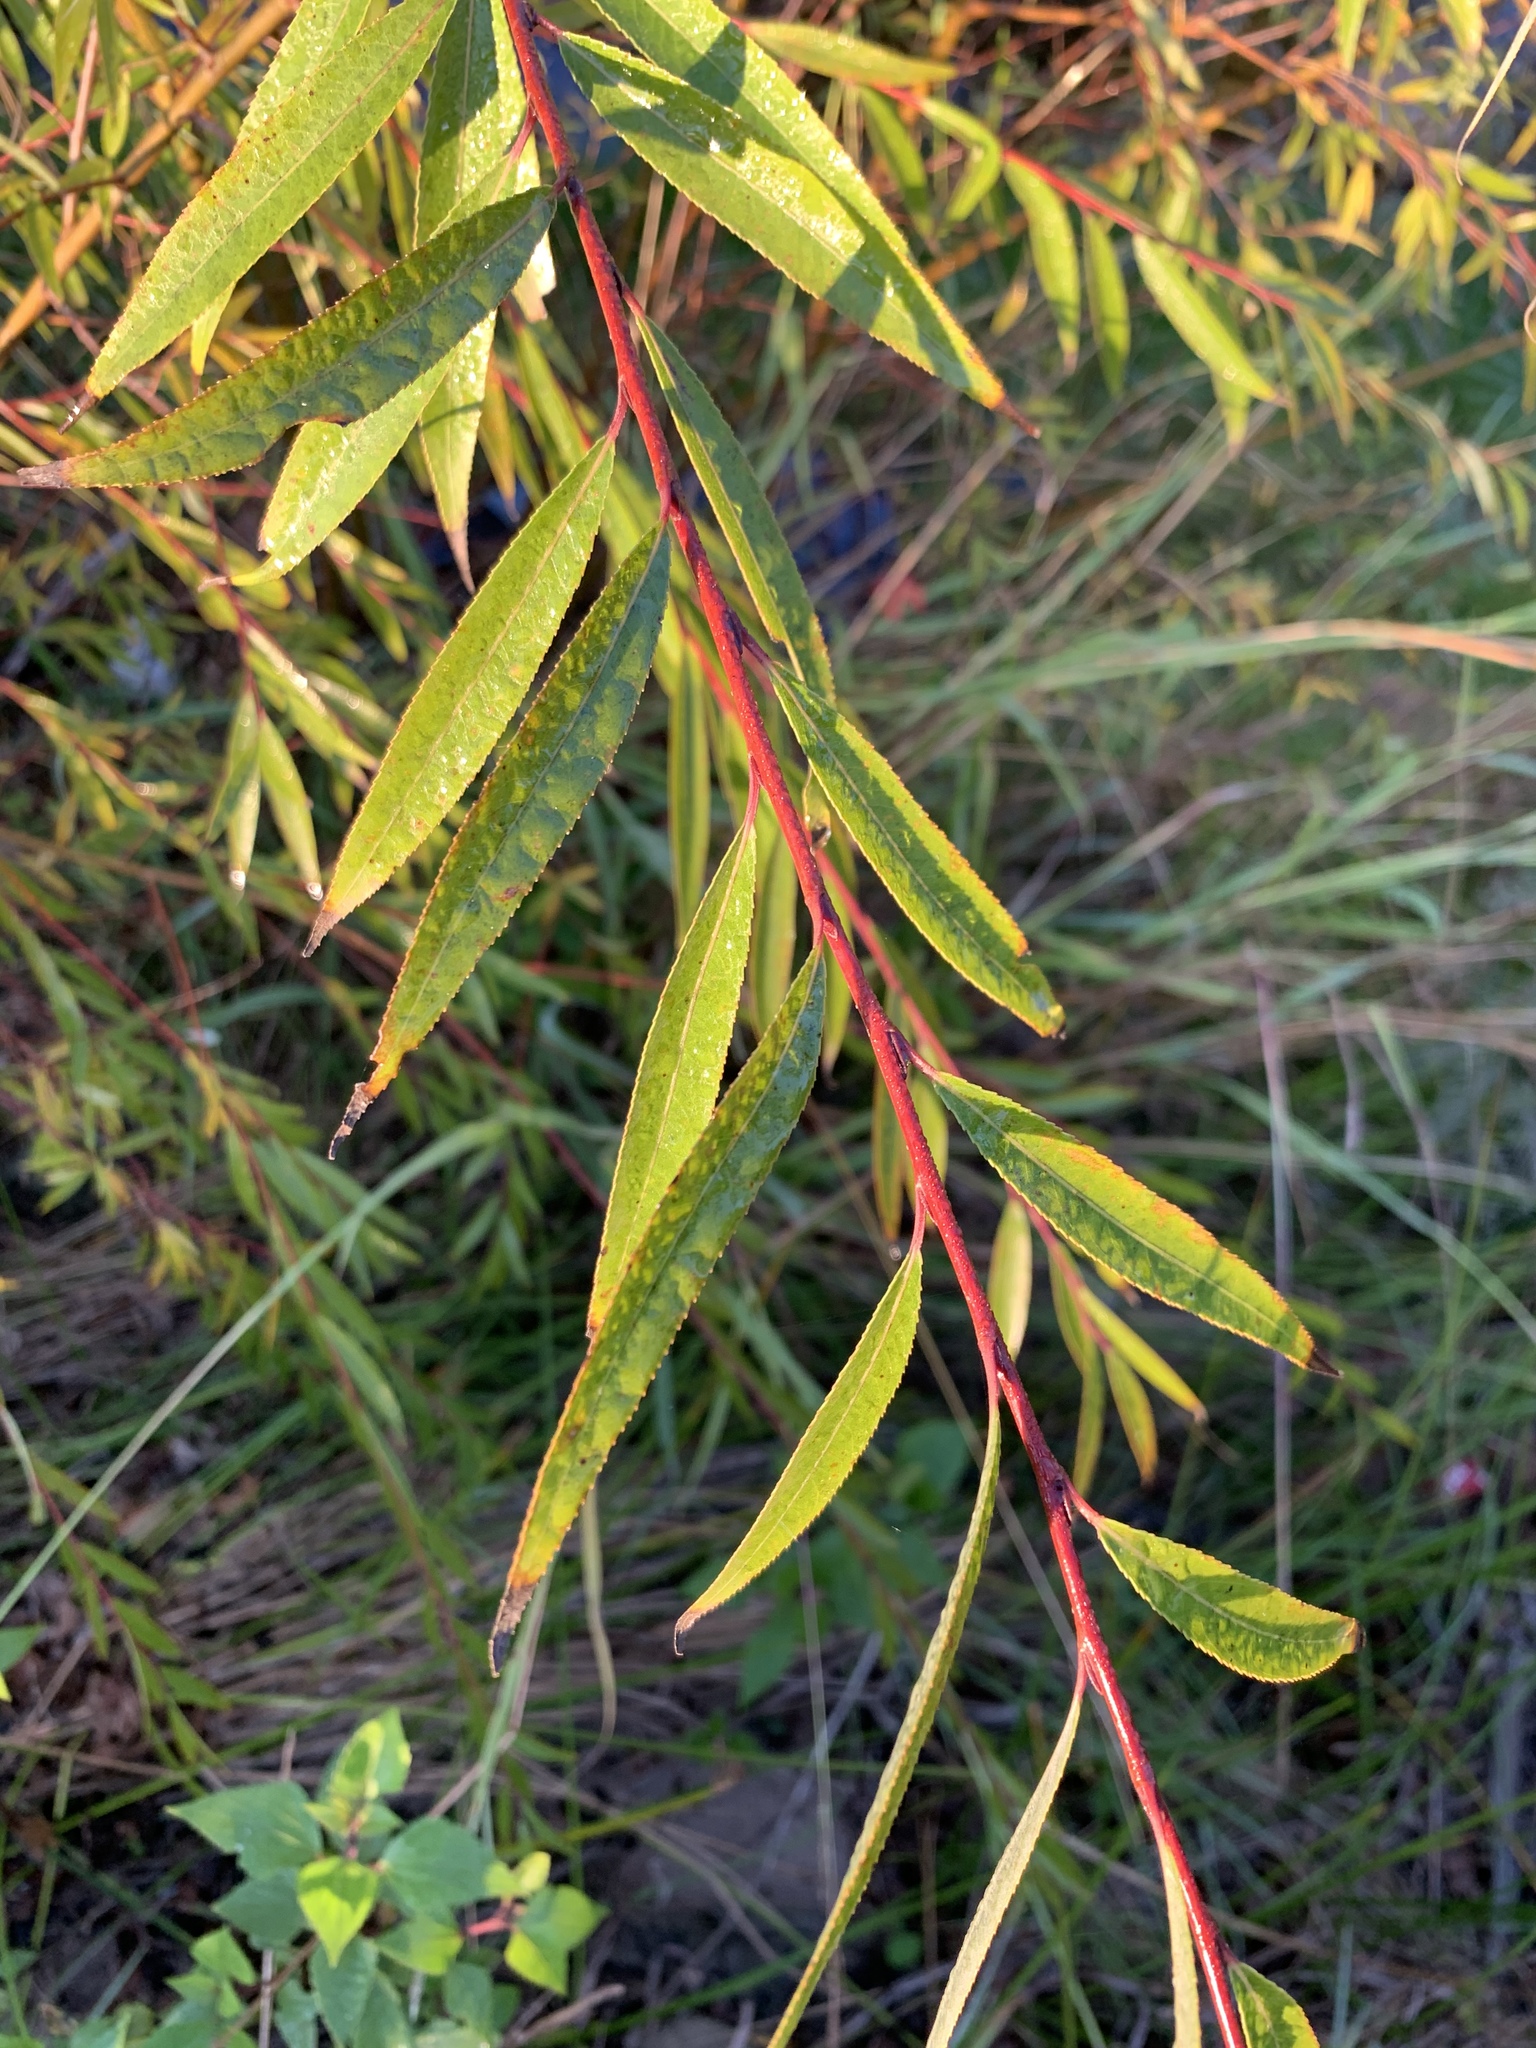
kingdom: Plantae
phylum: Tracheophyta
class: Magnoliopsida
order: Malpighiales
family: Salicaceae
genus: Salix
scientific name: Salix mucronata
